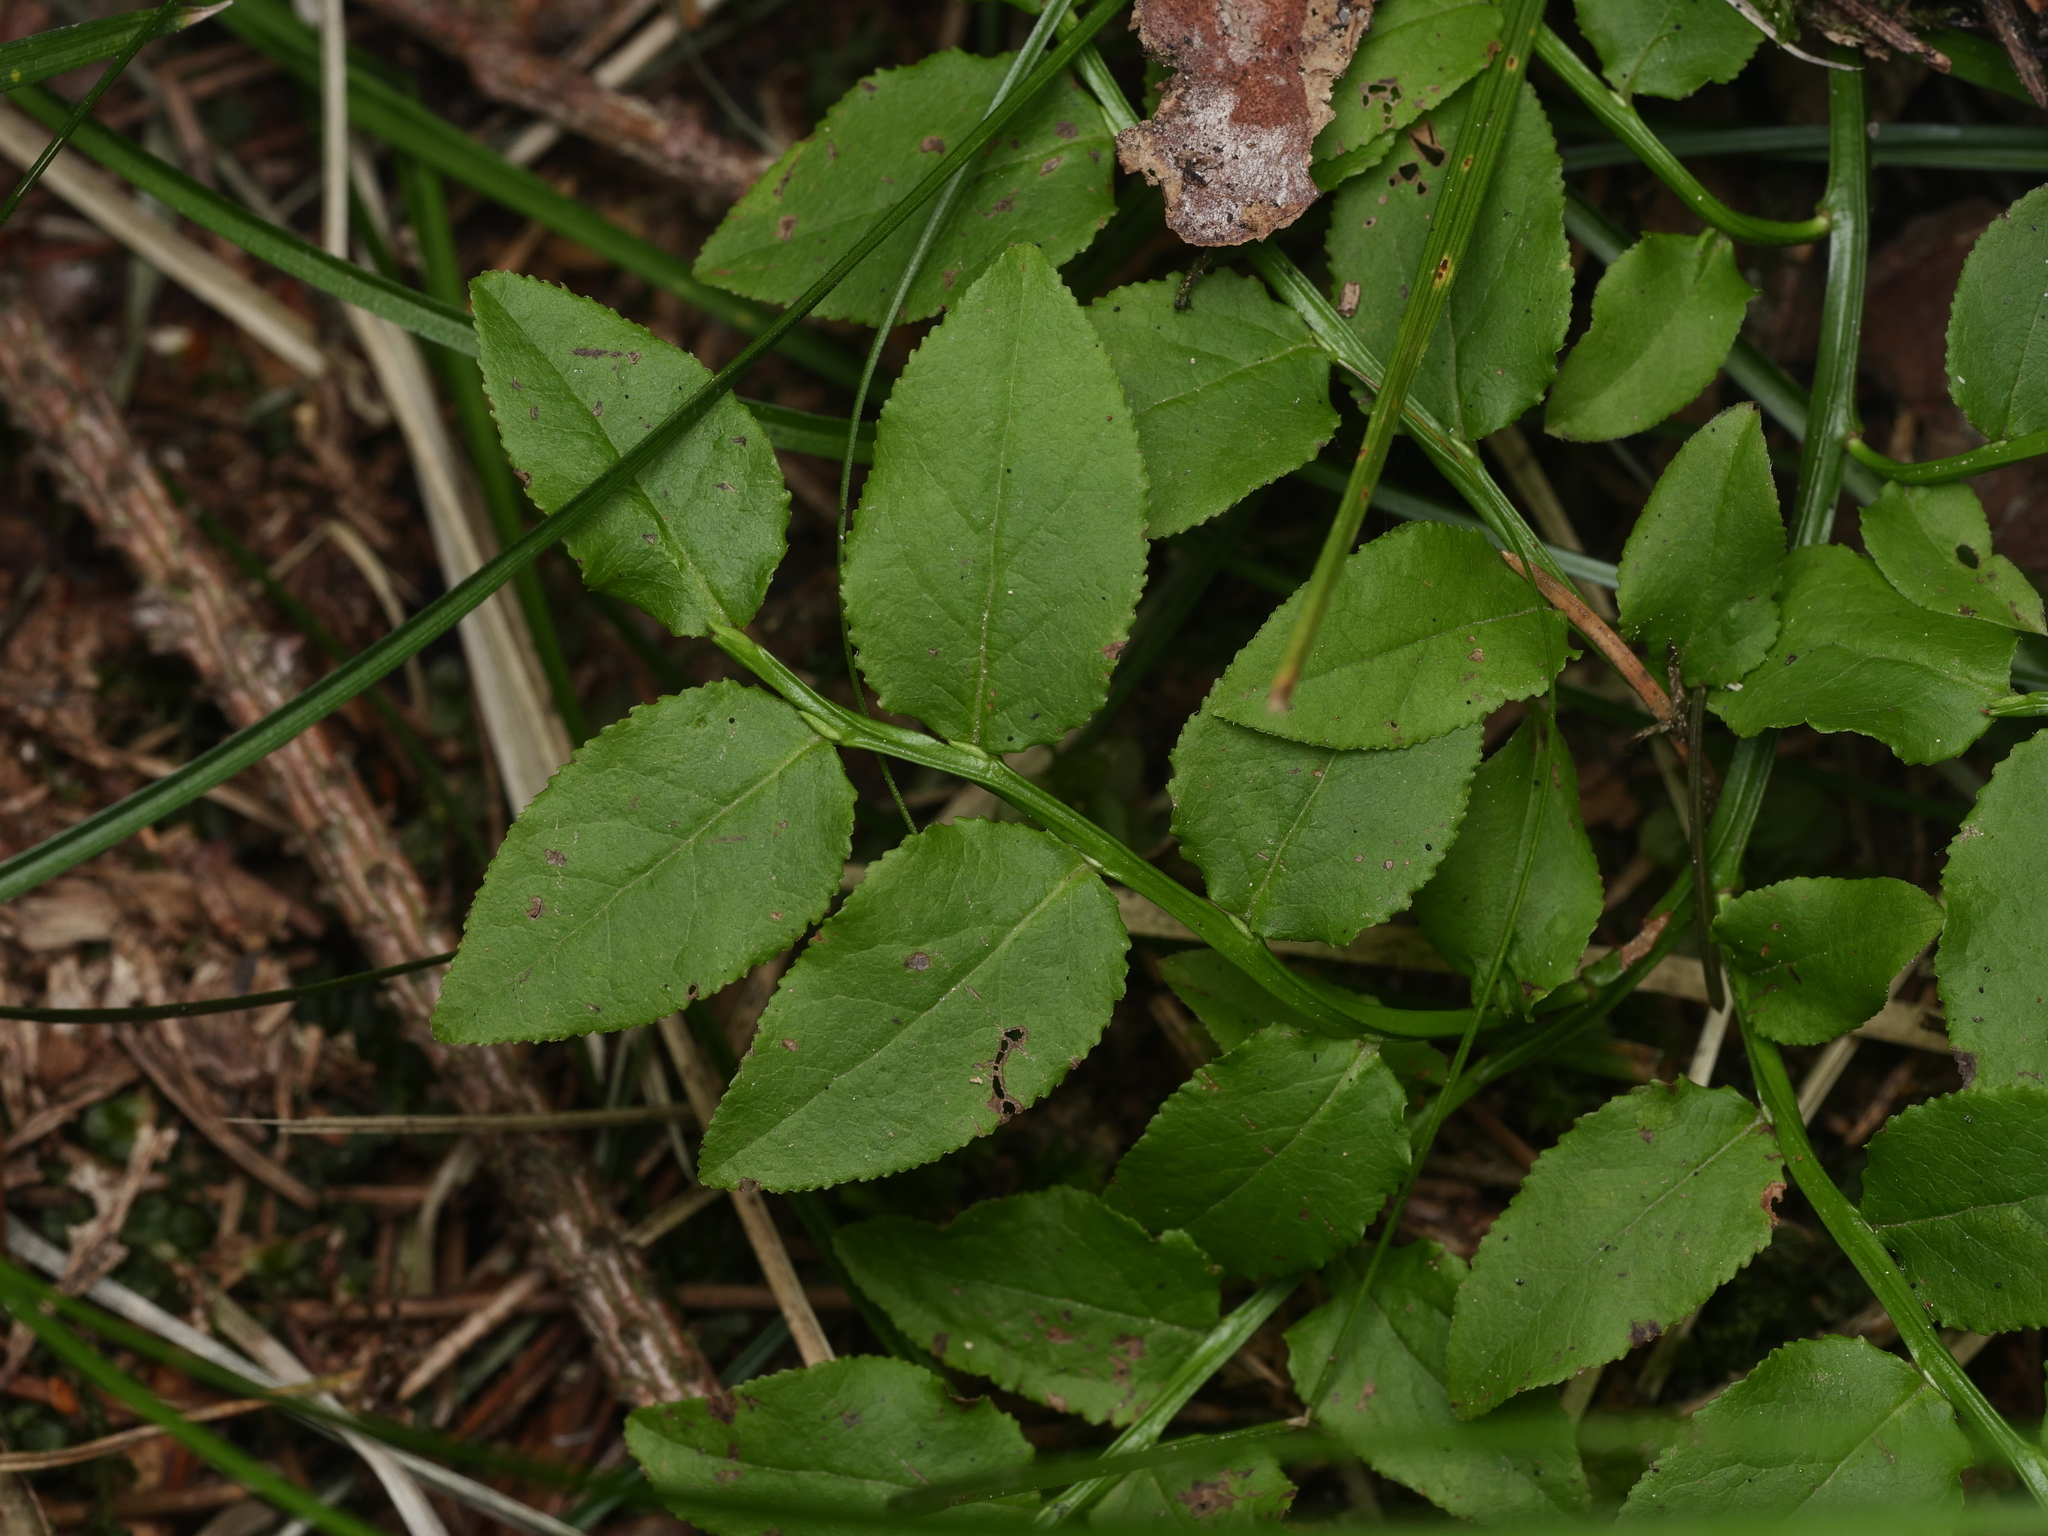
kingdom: Plantae
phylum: Tracheophyta
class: Magnoliopsida
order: Ericales
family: Ericaceae
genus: Vaccinium
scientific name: Vaccinium myrtillus
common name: Bilberry
